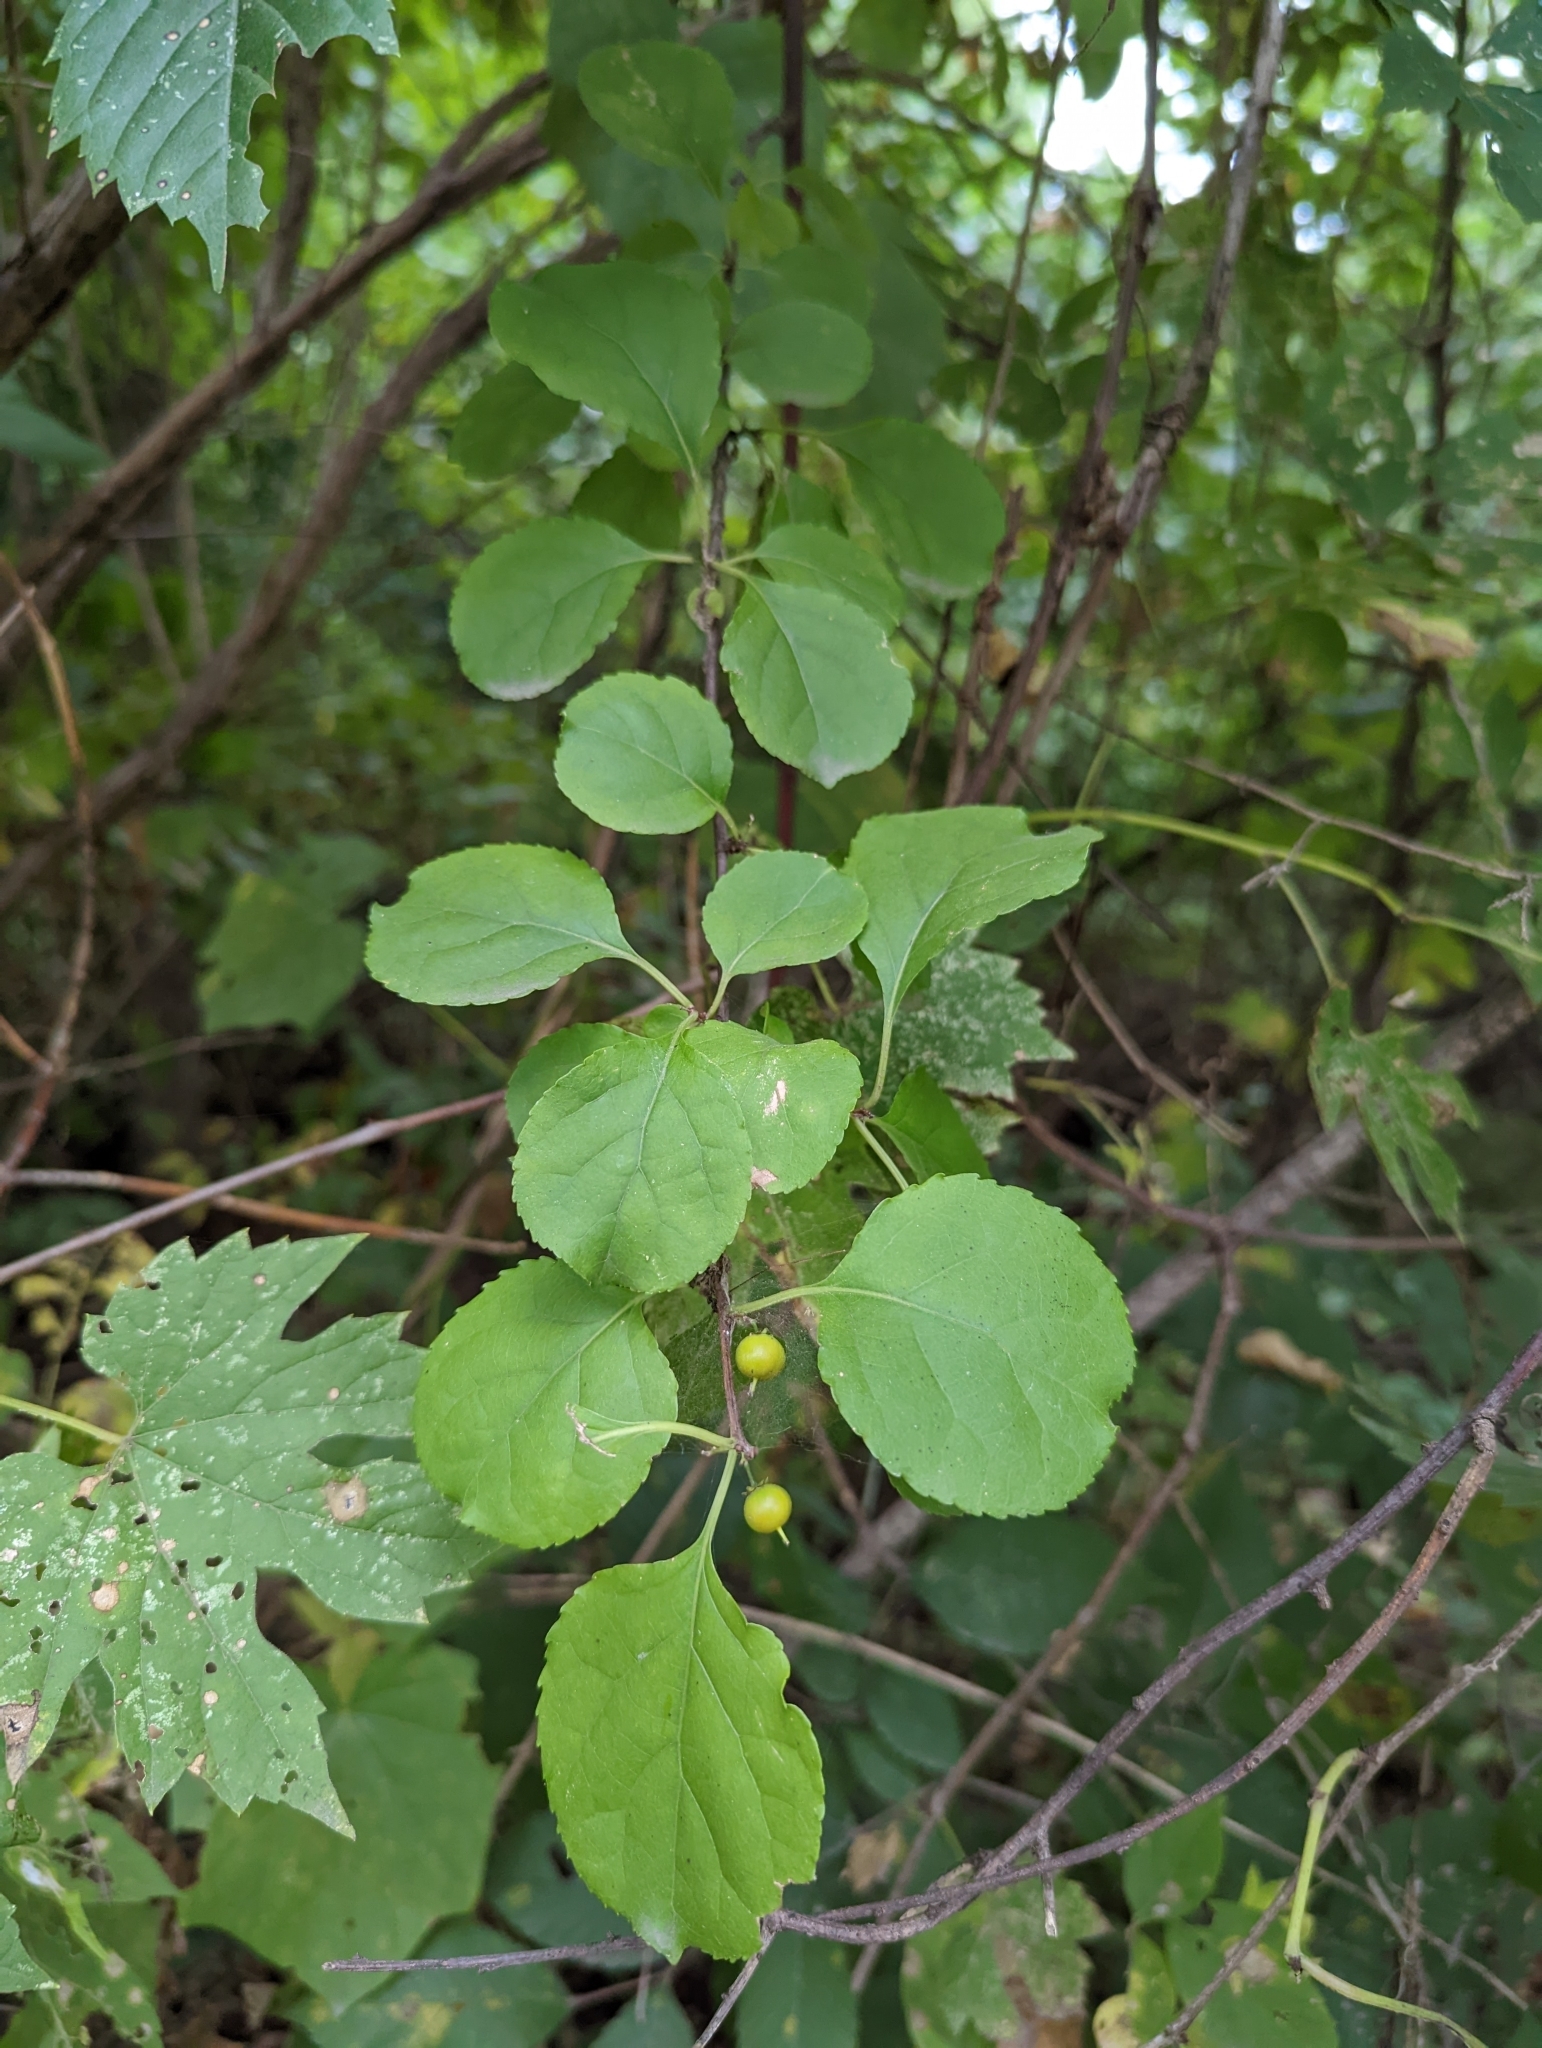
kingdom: Plantae
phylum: Tracheophyta
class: Magnoliopsida
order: Celastrales
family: Celastraceae
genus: Celastrus
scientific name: Celastrus orbiculatus
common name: Oriental bittersweet
